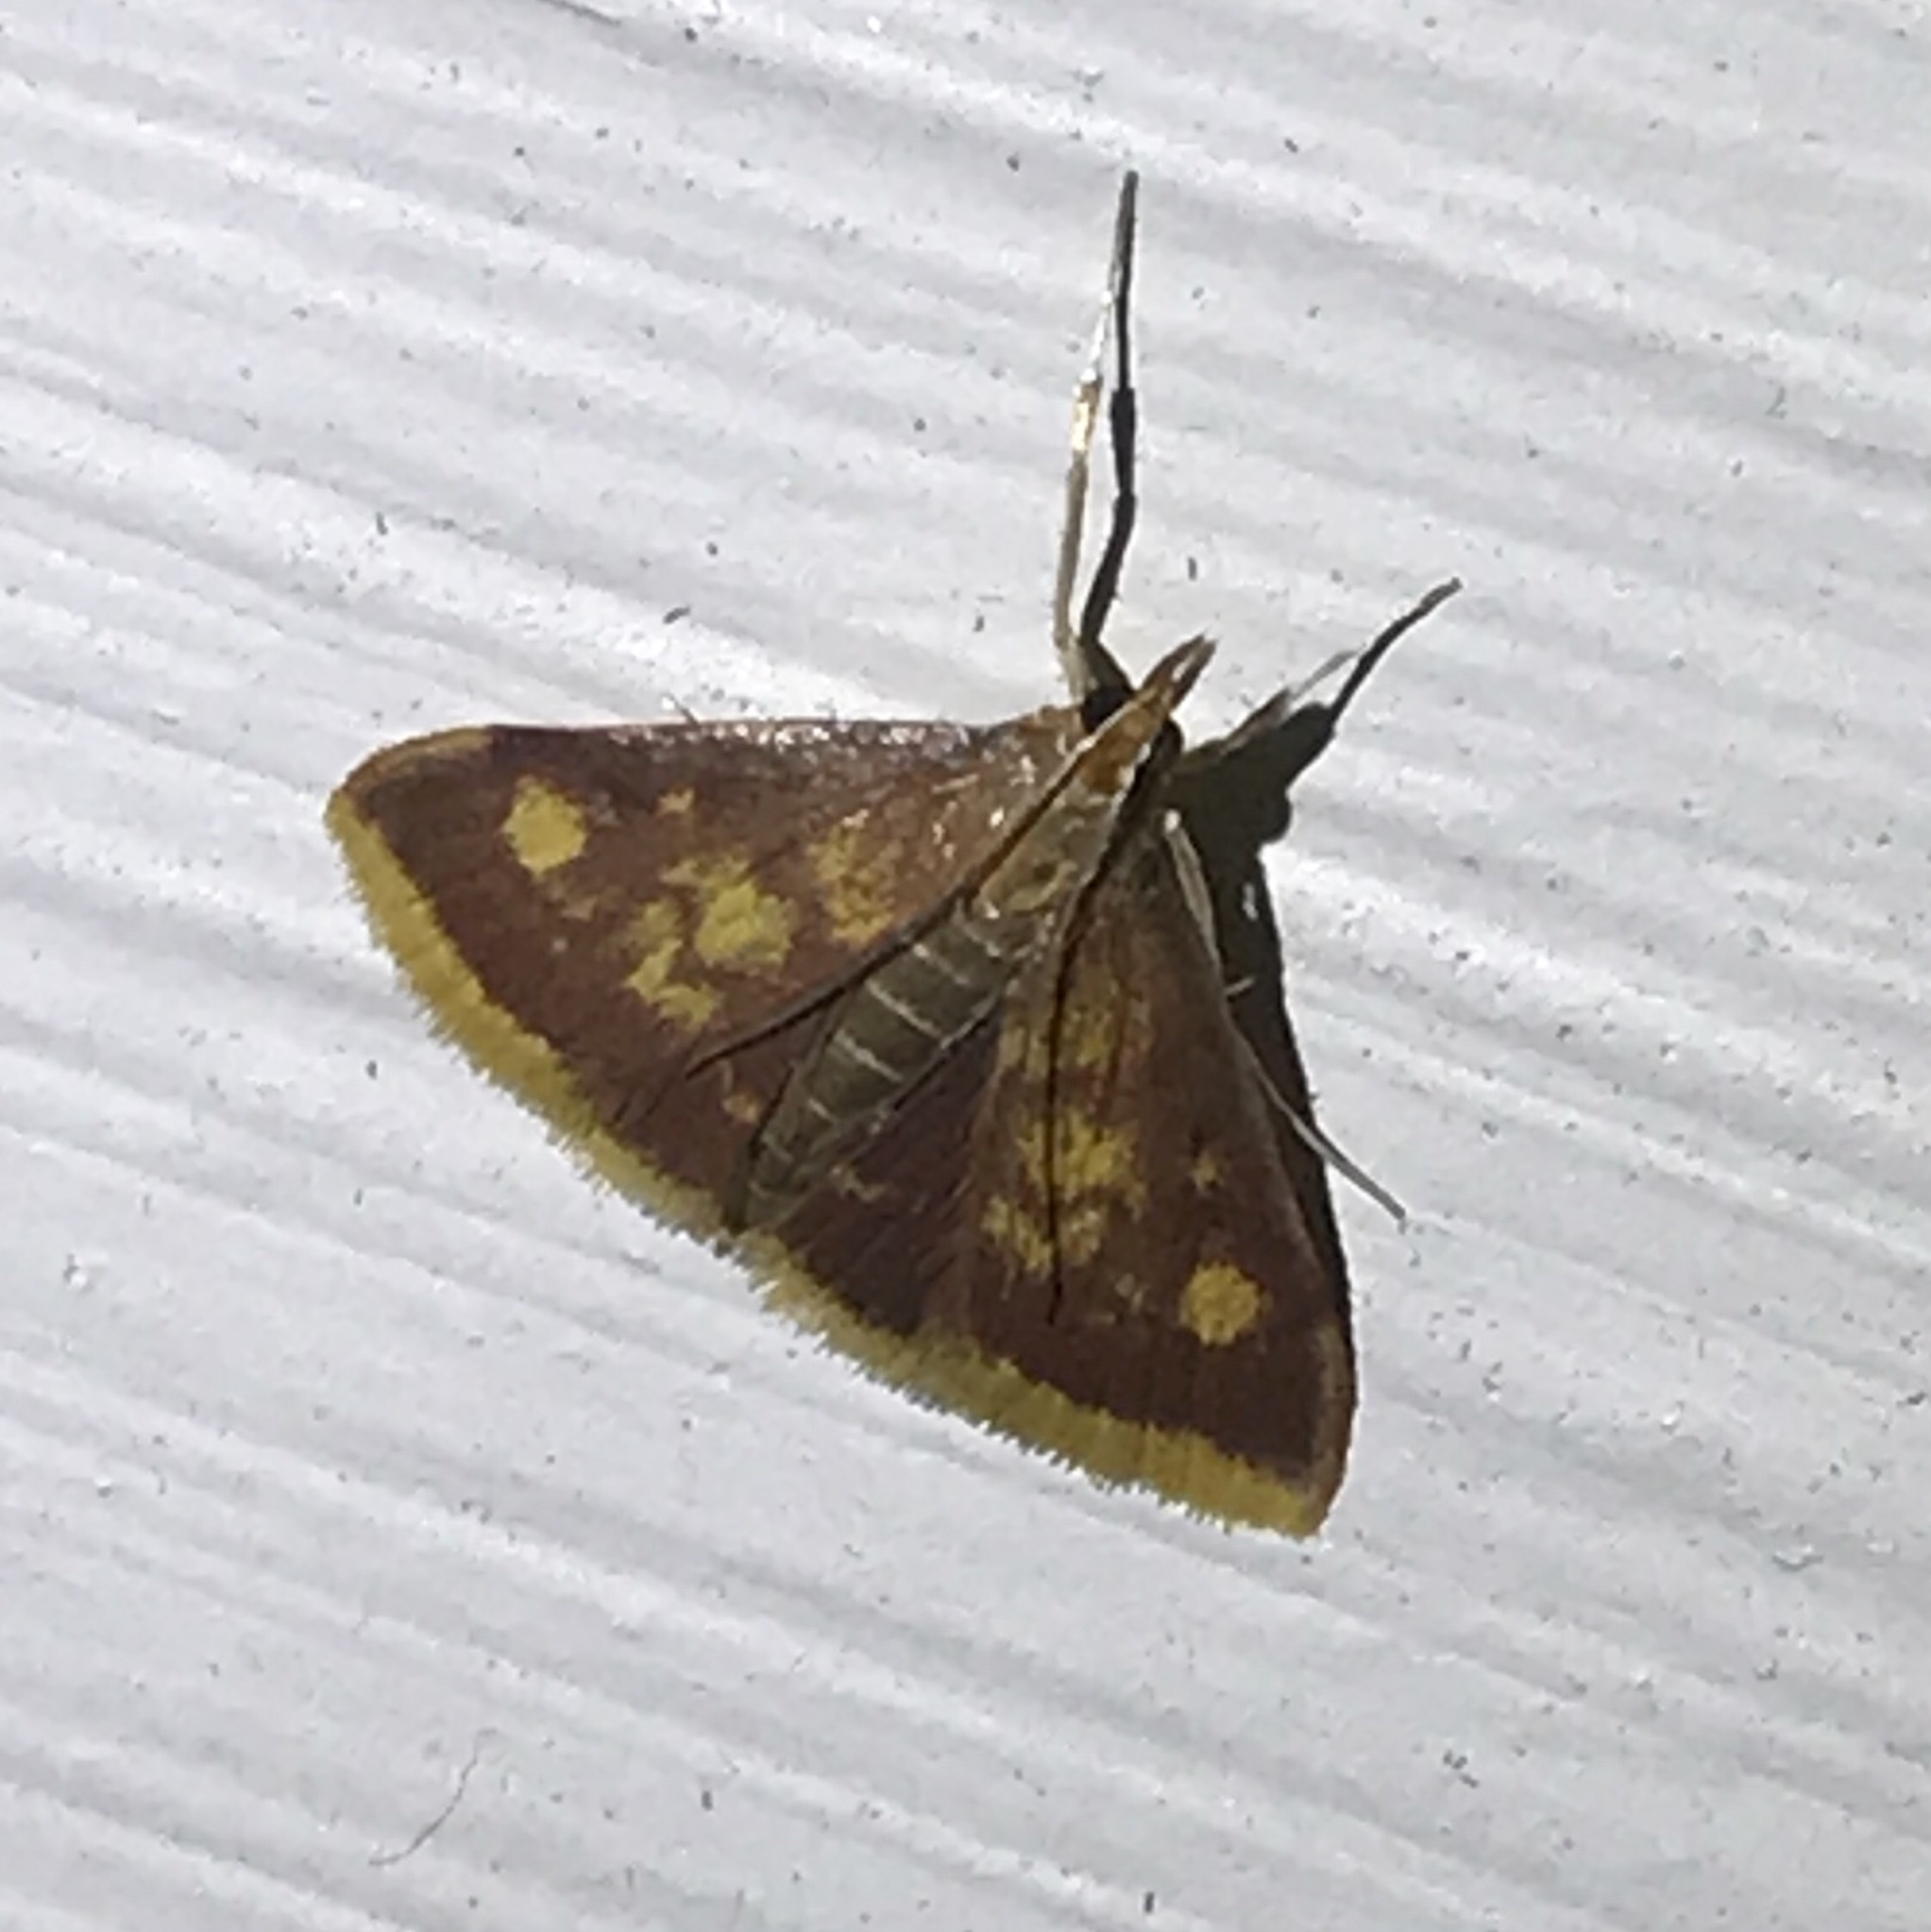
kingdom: Animalia
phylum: Arthropoda
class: Insecta
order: Lepidoptera
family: Crambidae
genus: Pyrausta
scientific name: Pyrausta acrionalis
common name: Mint-loving pyrausta moth
